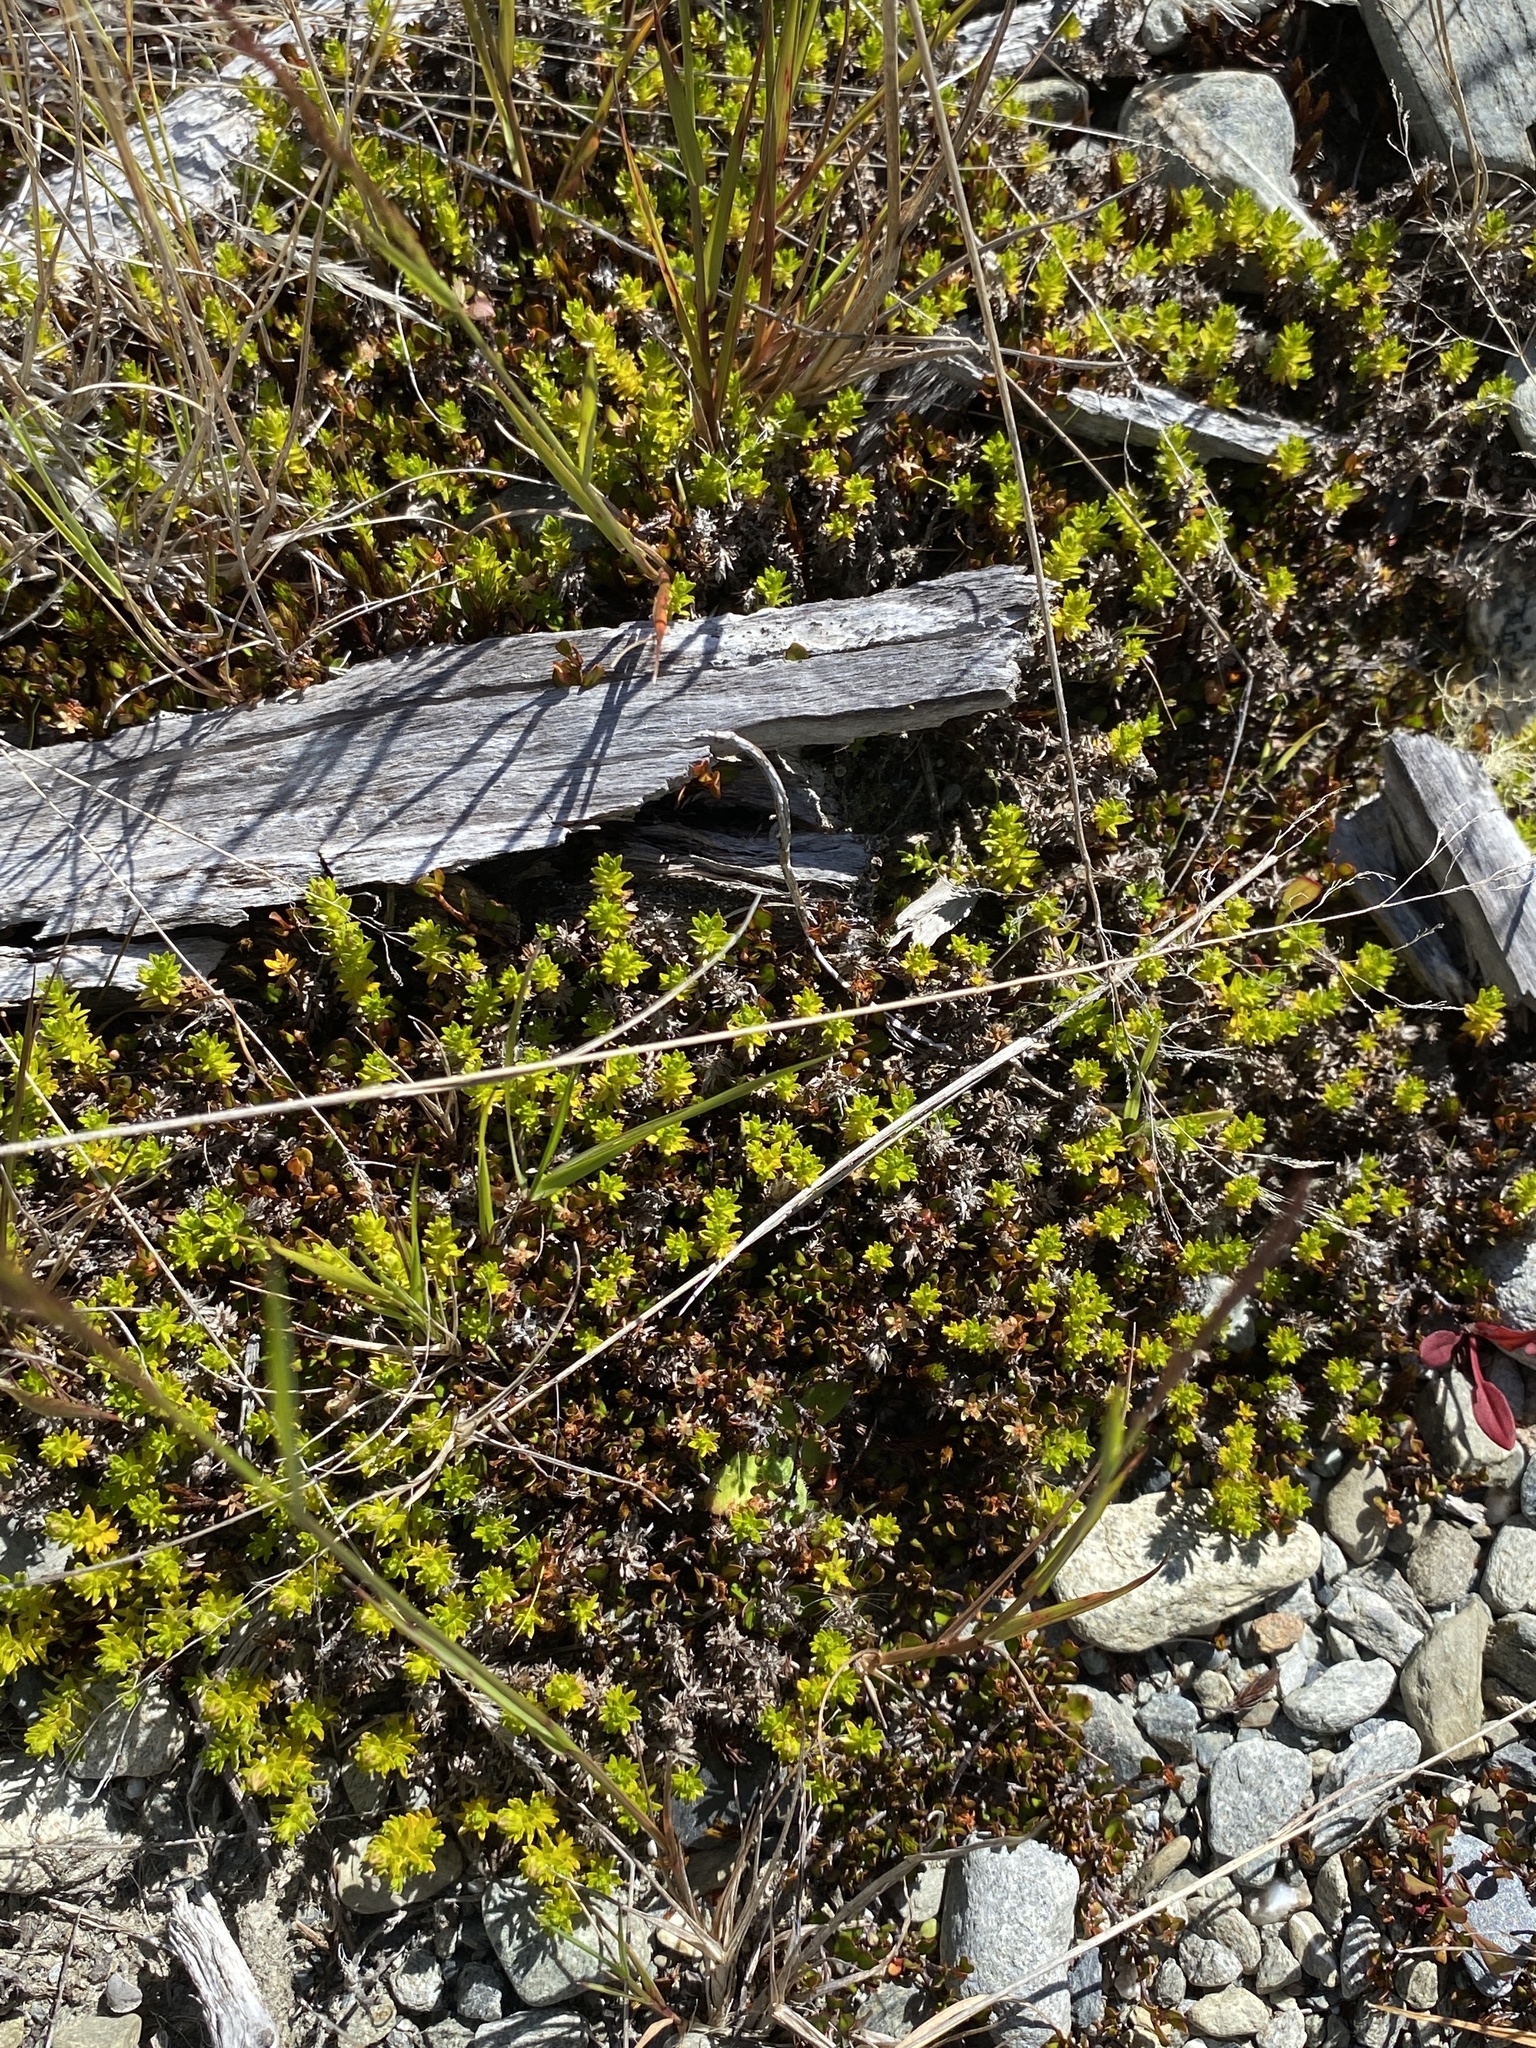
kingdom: Plantae
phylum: Tracheophyta
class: Magnoliopsida
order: Asterales
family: Asteraceae
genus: Raoulia
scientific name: Raoulia glabra
